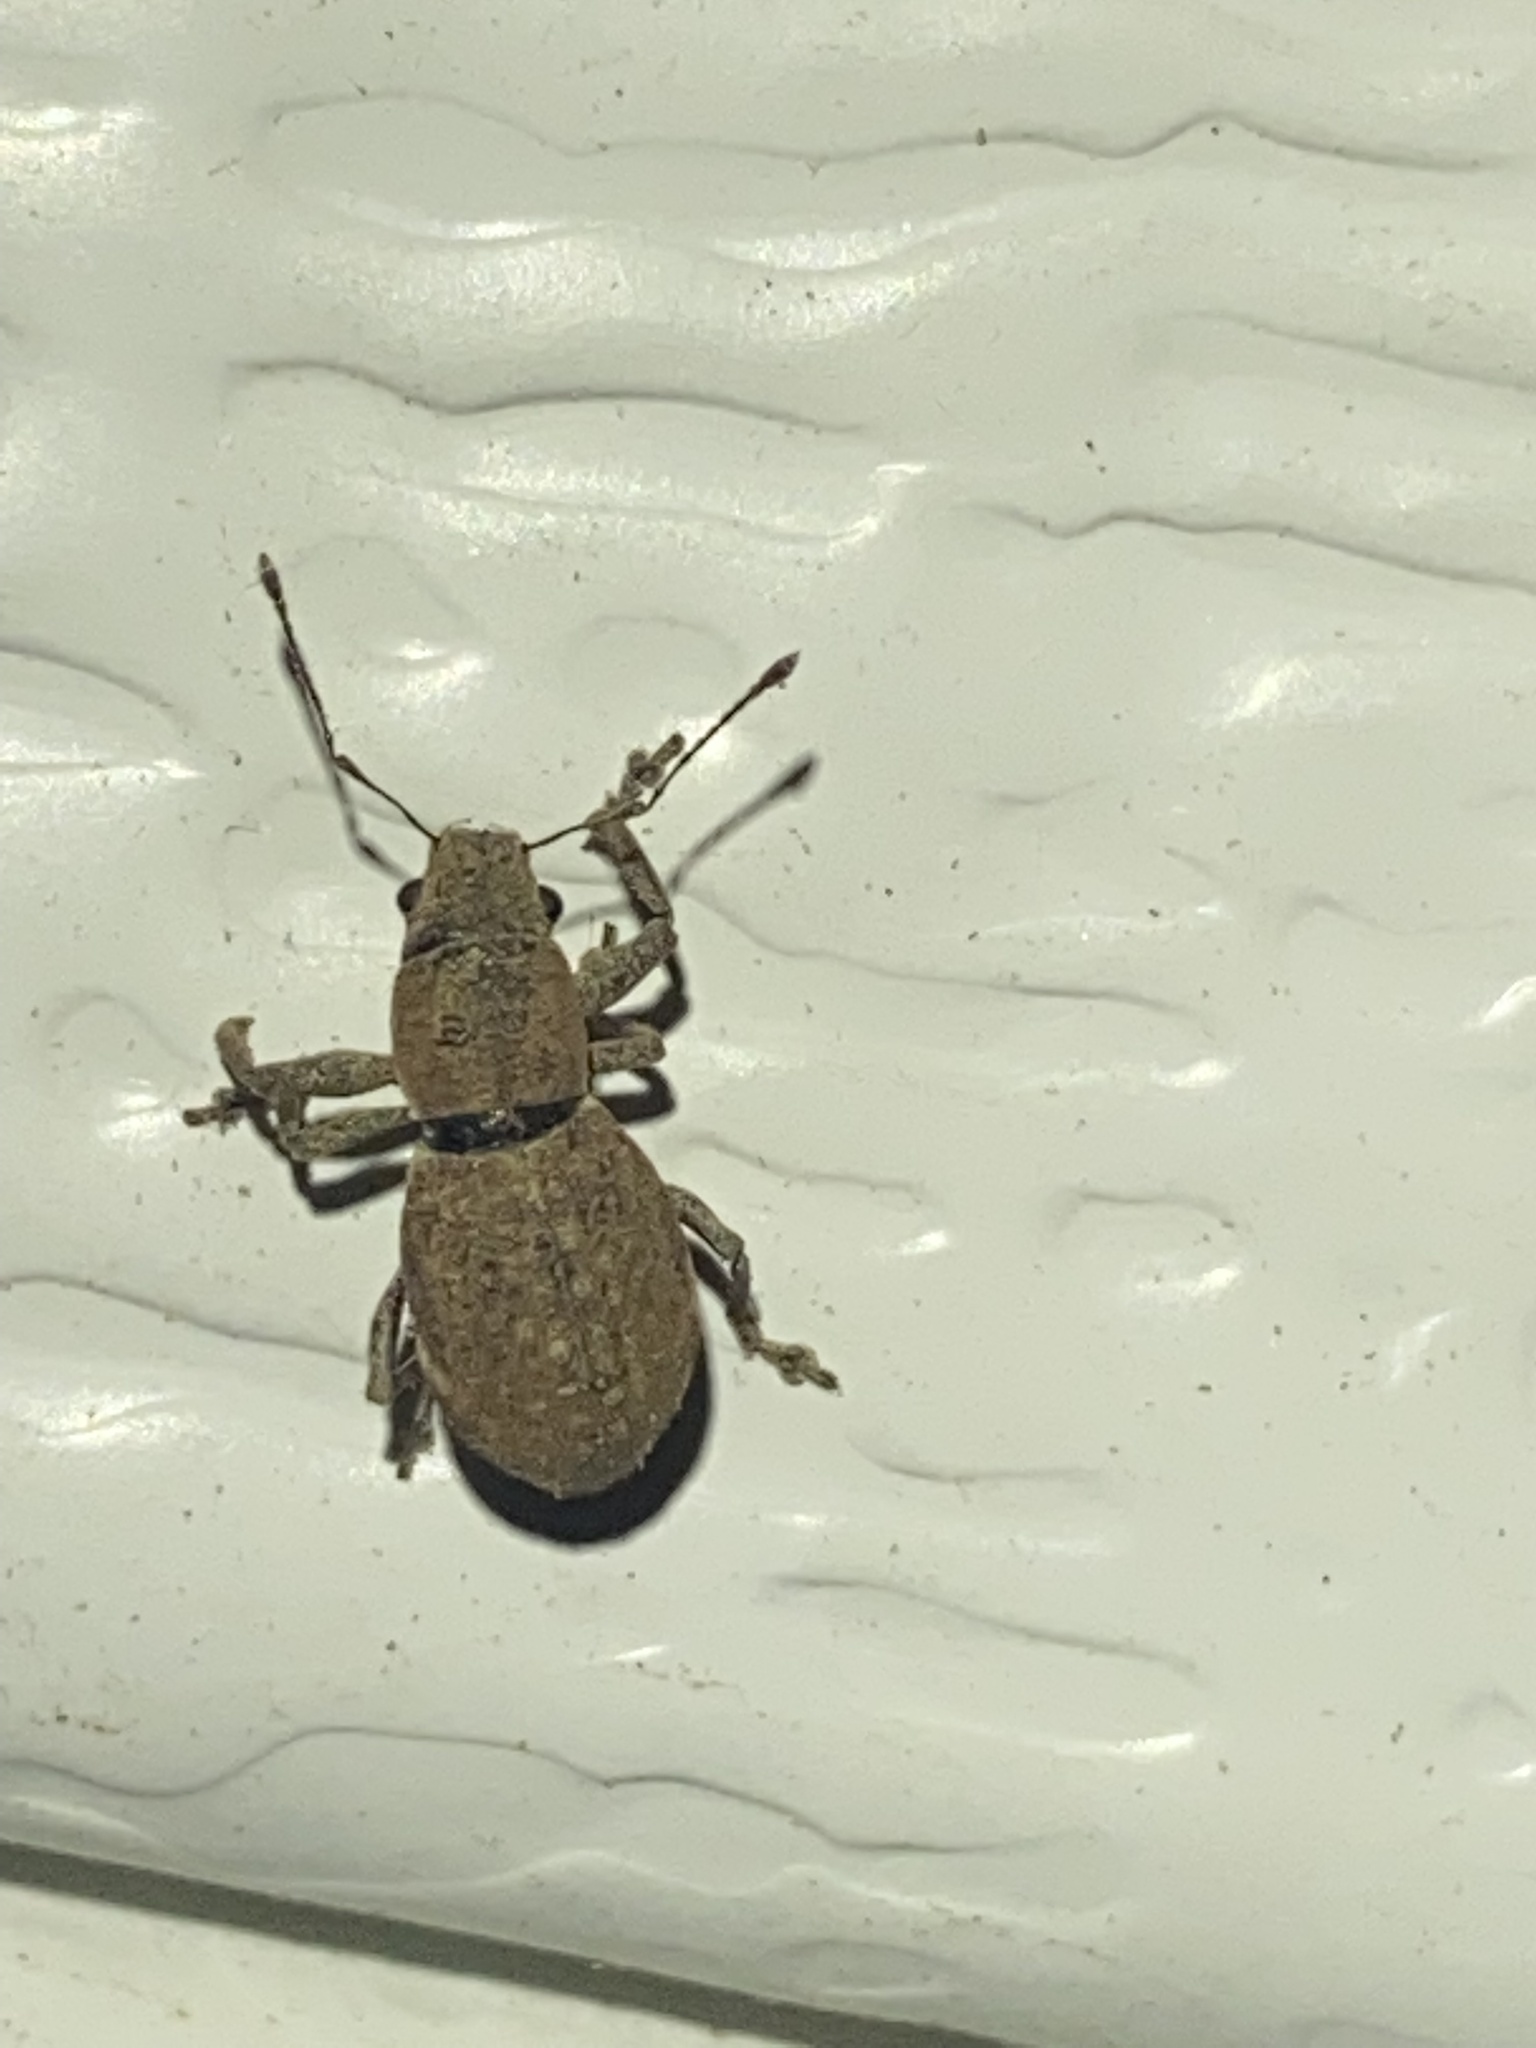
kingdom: Animalia
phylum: Arthropoda
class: Insecta
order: Coleoptera
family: Curculionidae
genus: Naupactus
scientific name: Naupactus cervinus
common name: Fuller rose beetle
